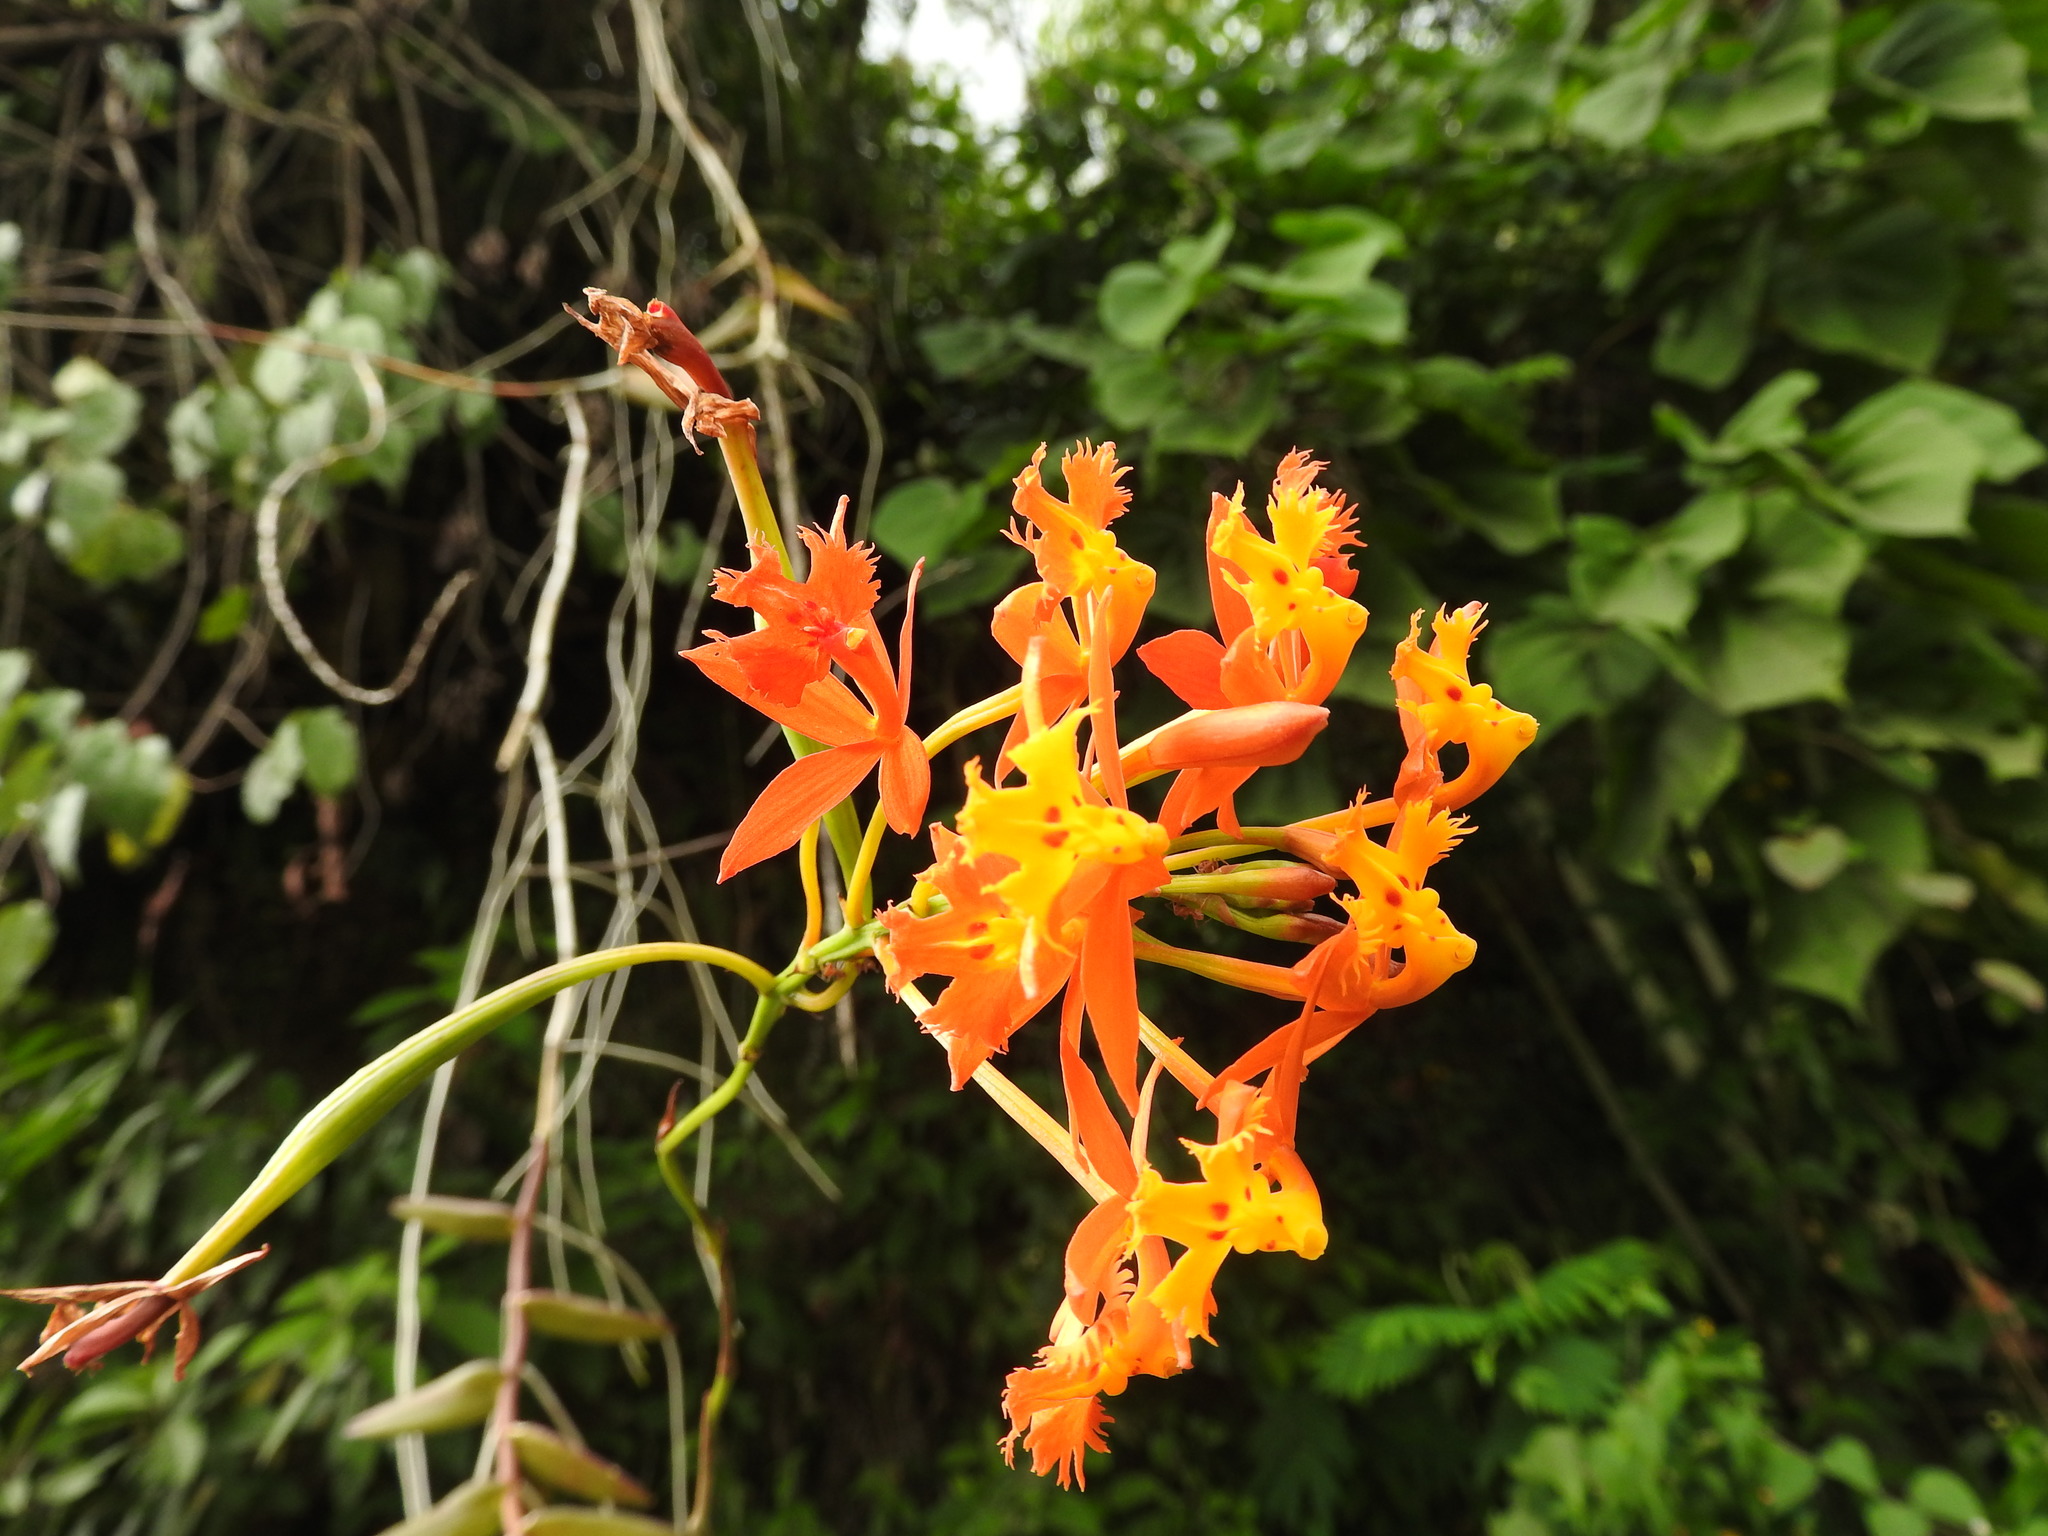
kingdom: Plantae
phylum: Tracheophyta
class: Liliopsida
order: Asparagales
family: Orchidaceae
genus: Epidendrum
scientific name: Epidendrum radicans
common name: Fire star orchid
